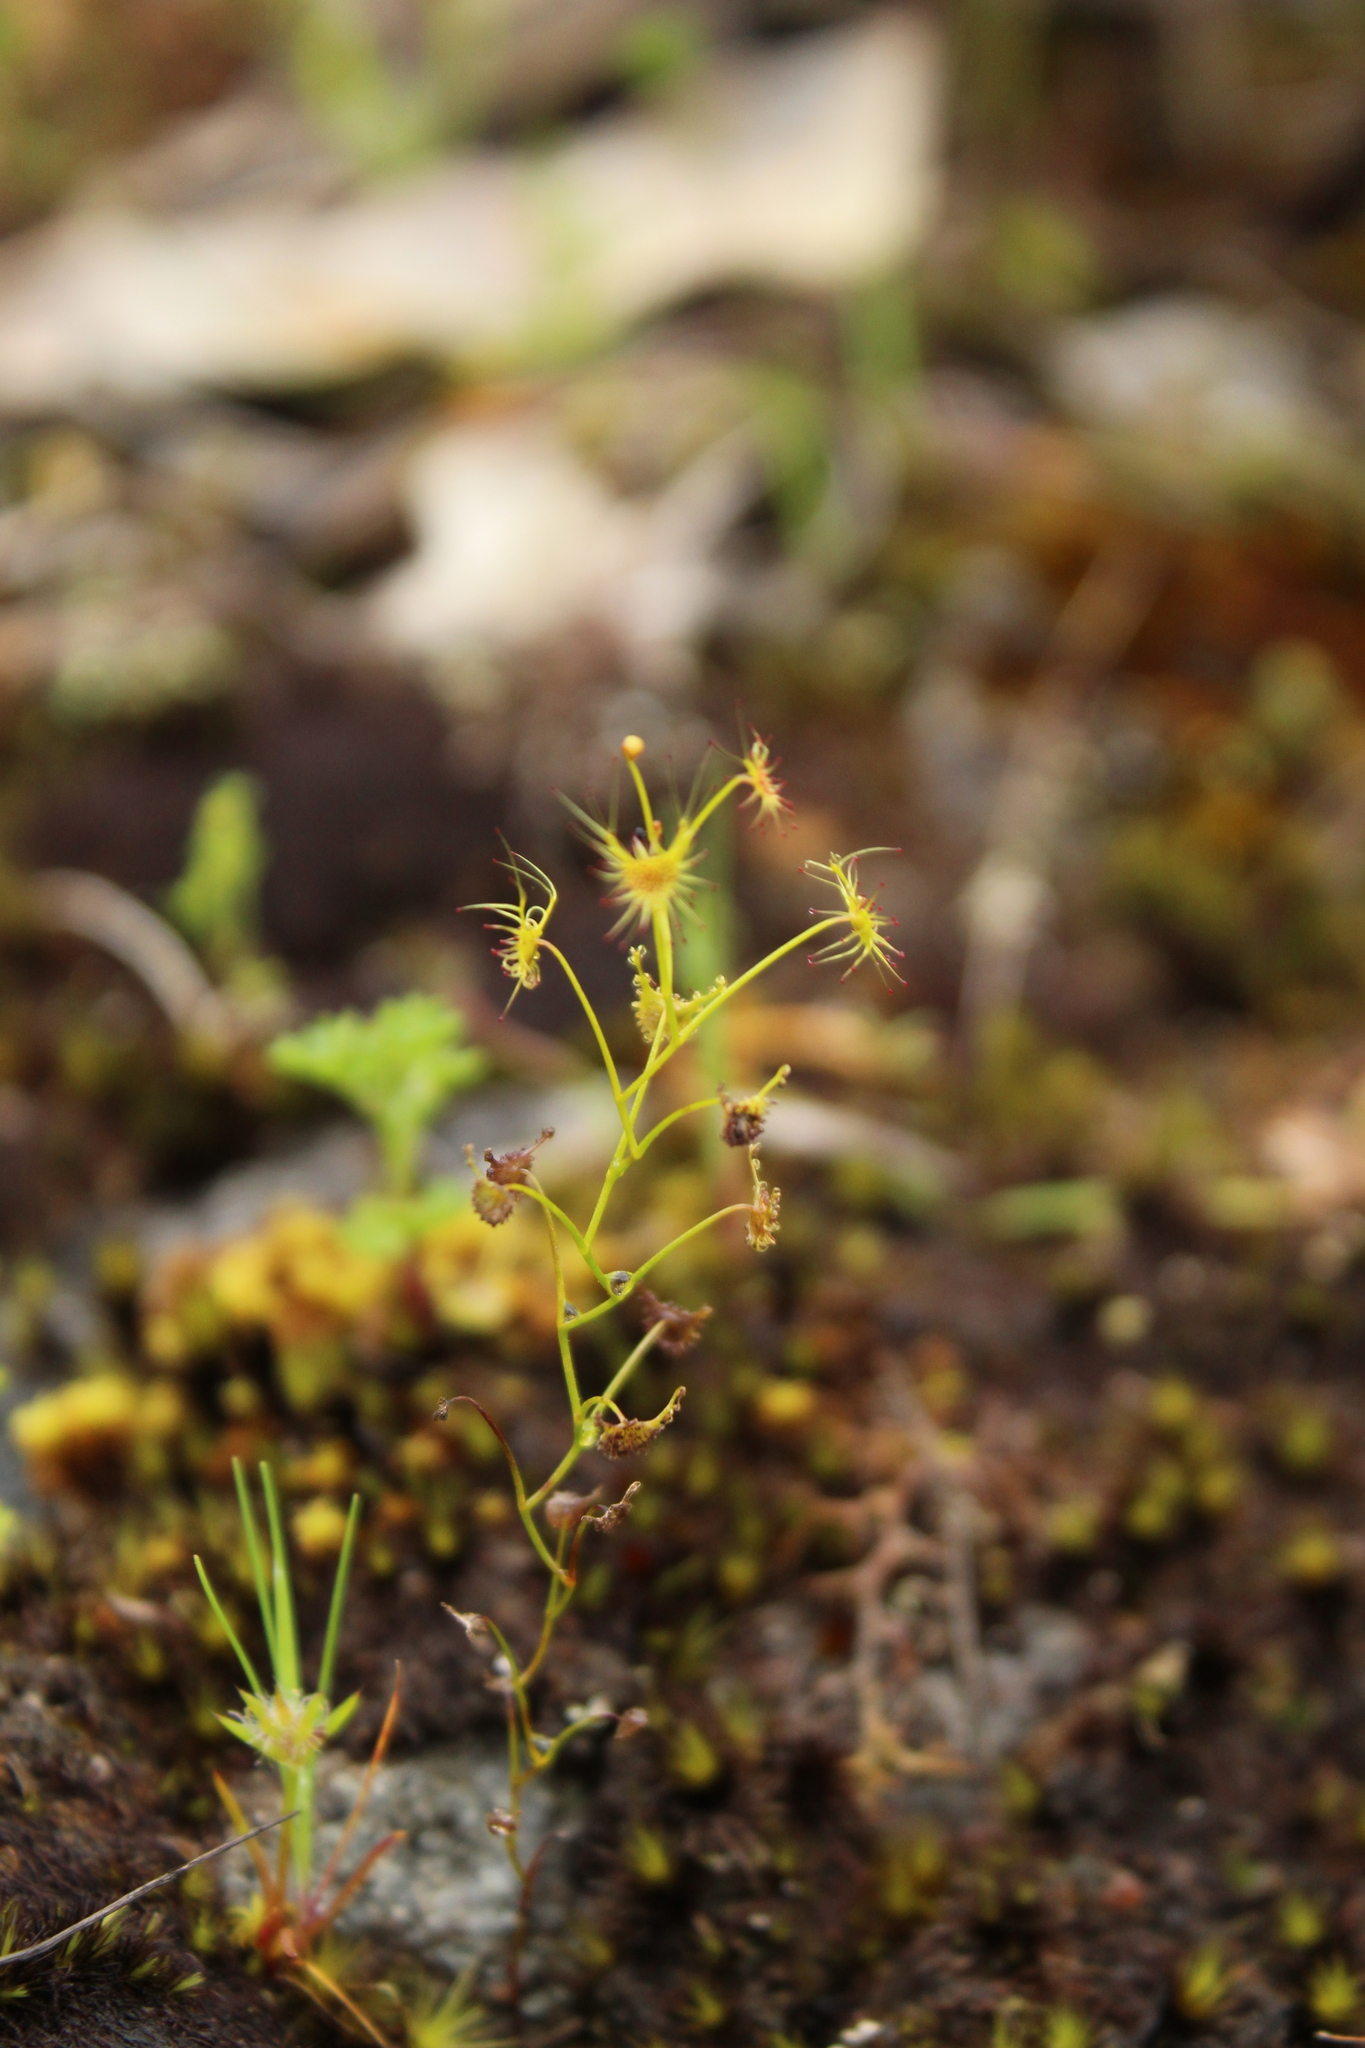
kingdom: Plantae
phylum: Tracheophyta
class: Magnoliopsida
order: Caryophyllales
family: Droseraceae
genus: Drosera
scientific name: Drosera modesta
